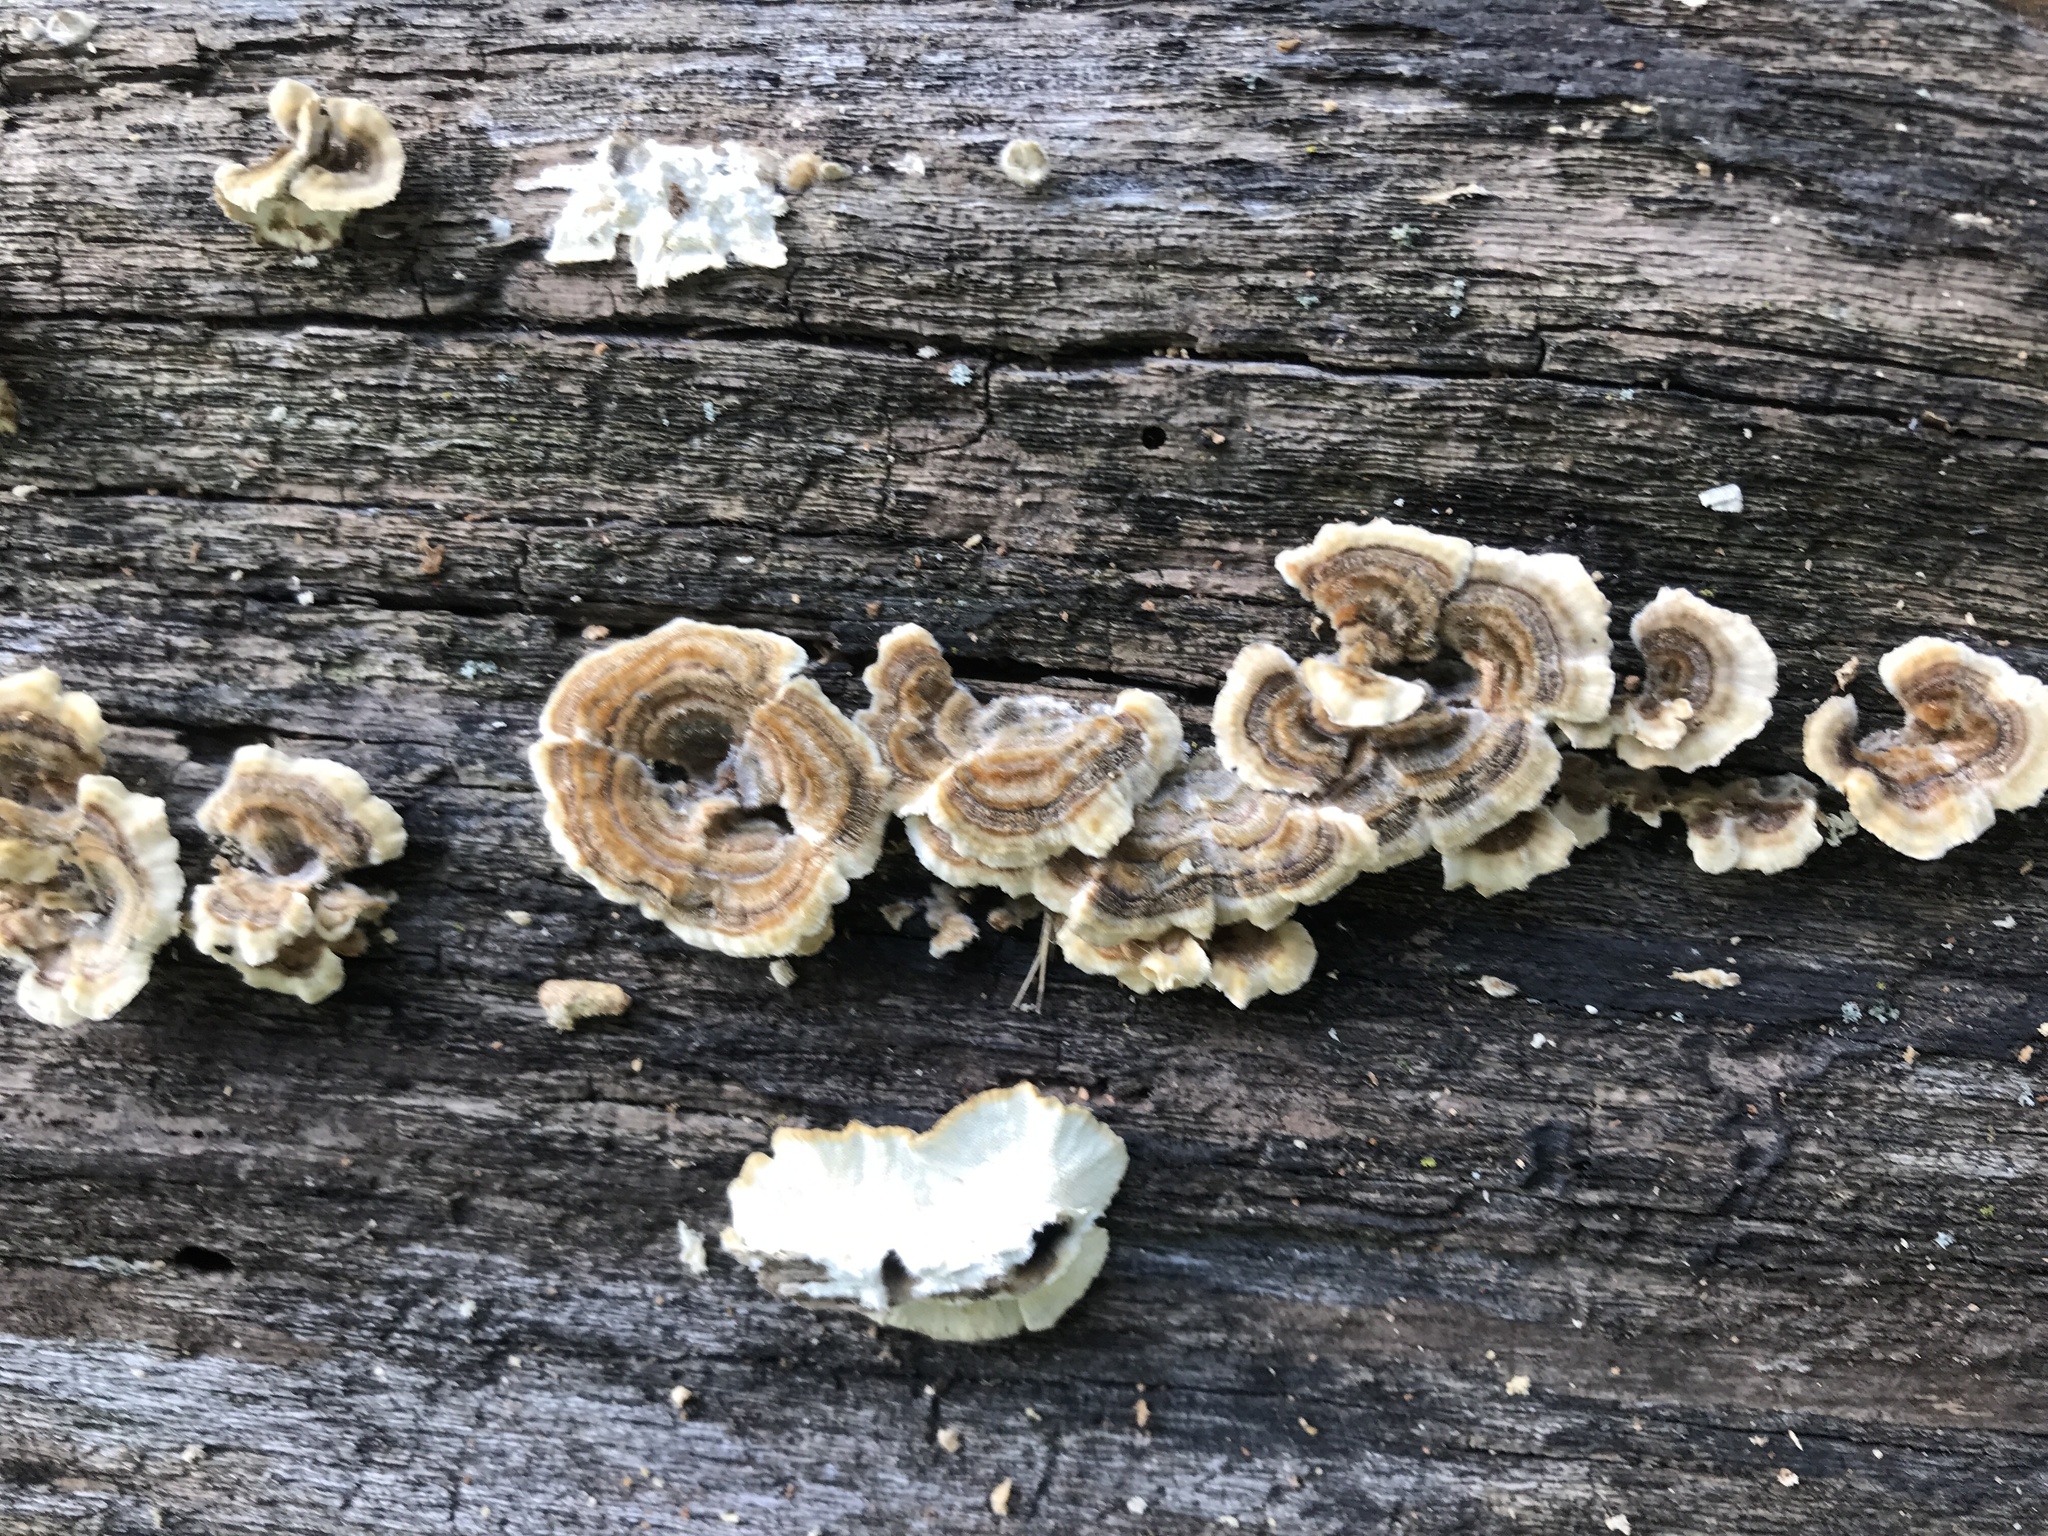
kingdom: Fungi
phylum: Basidiomycota
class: Agaricomycetes
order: Polyporales
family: Polyporaceae
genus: Trametes
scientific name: Trametes ochracea
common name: Ochre bracket
